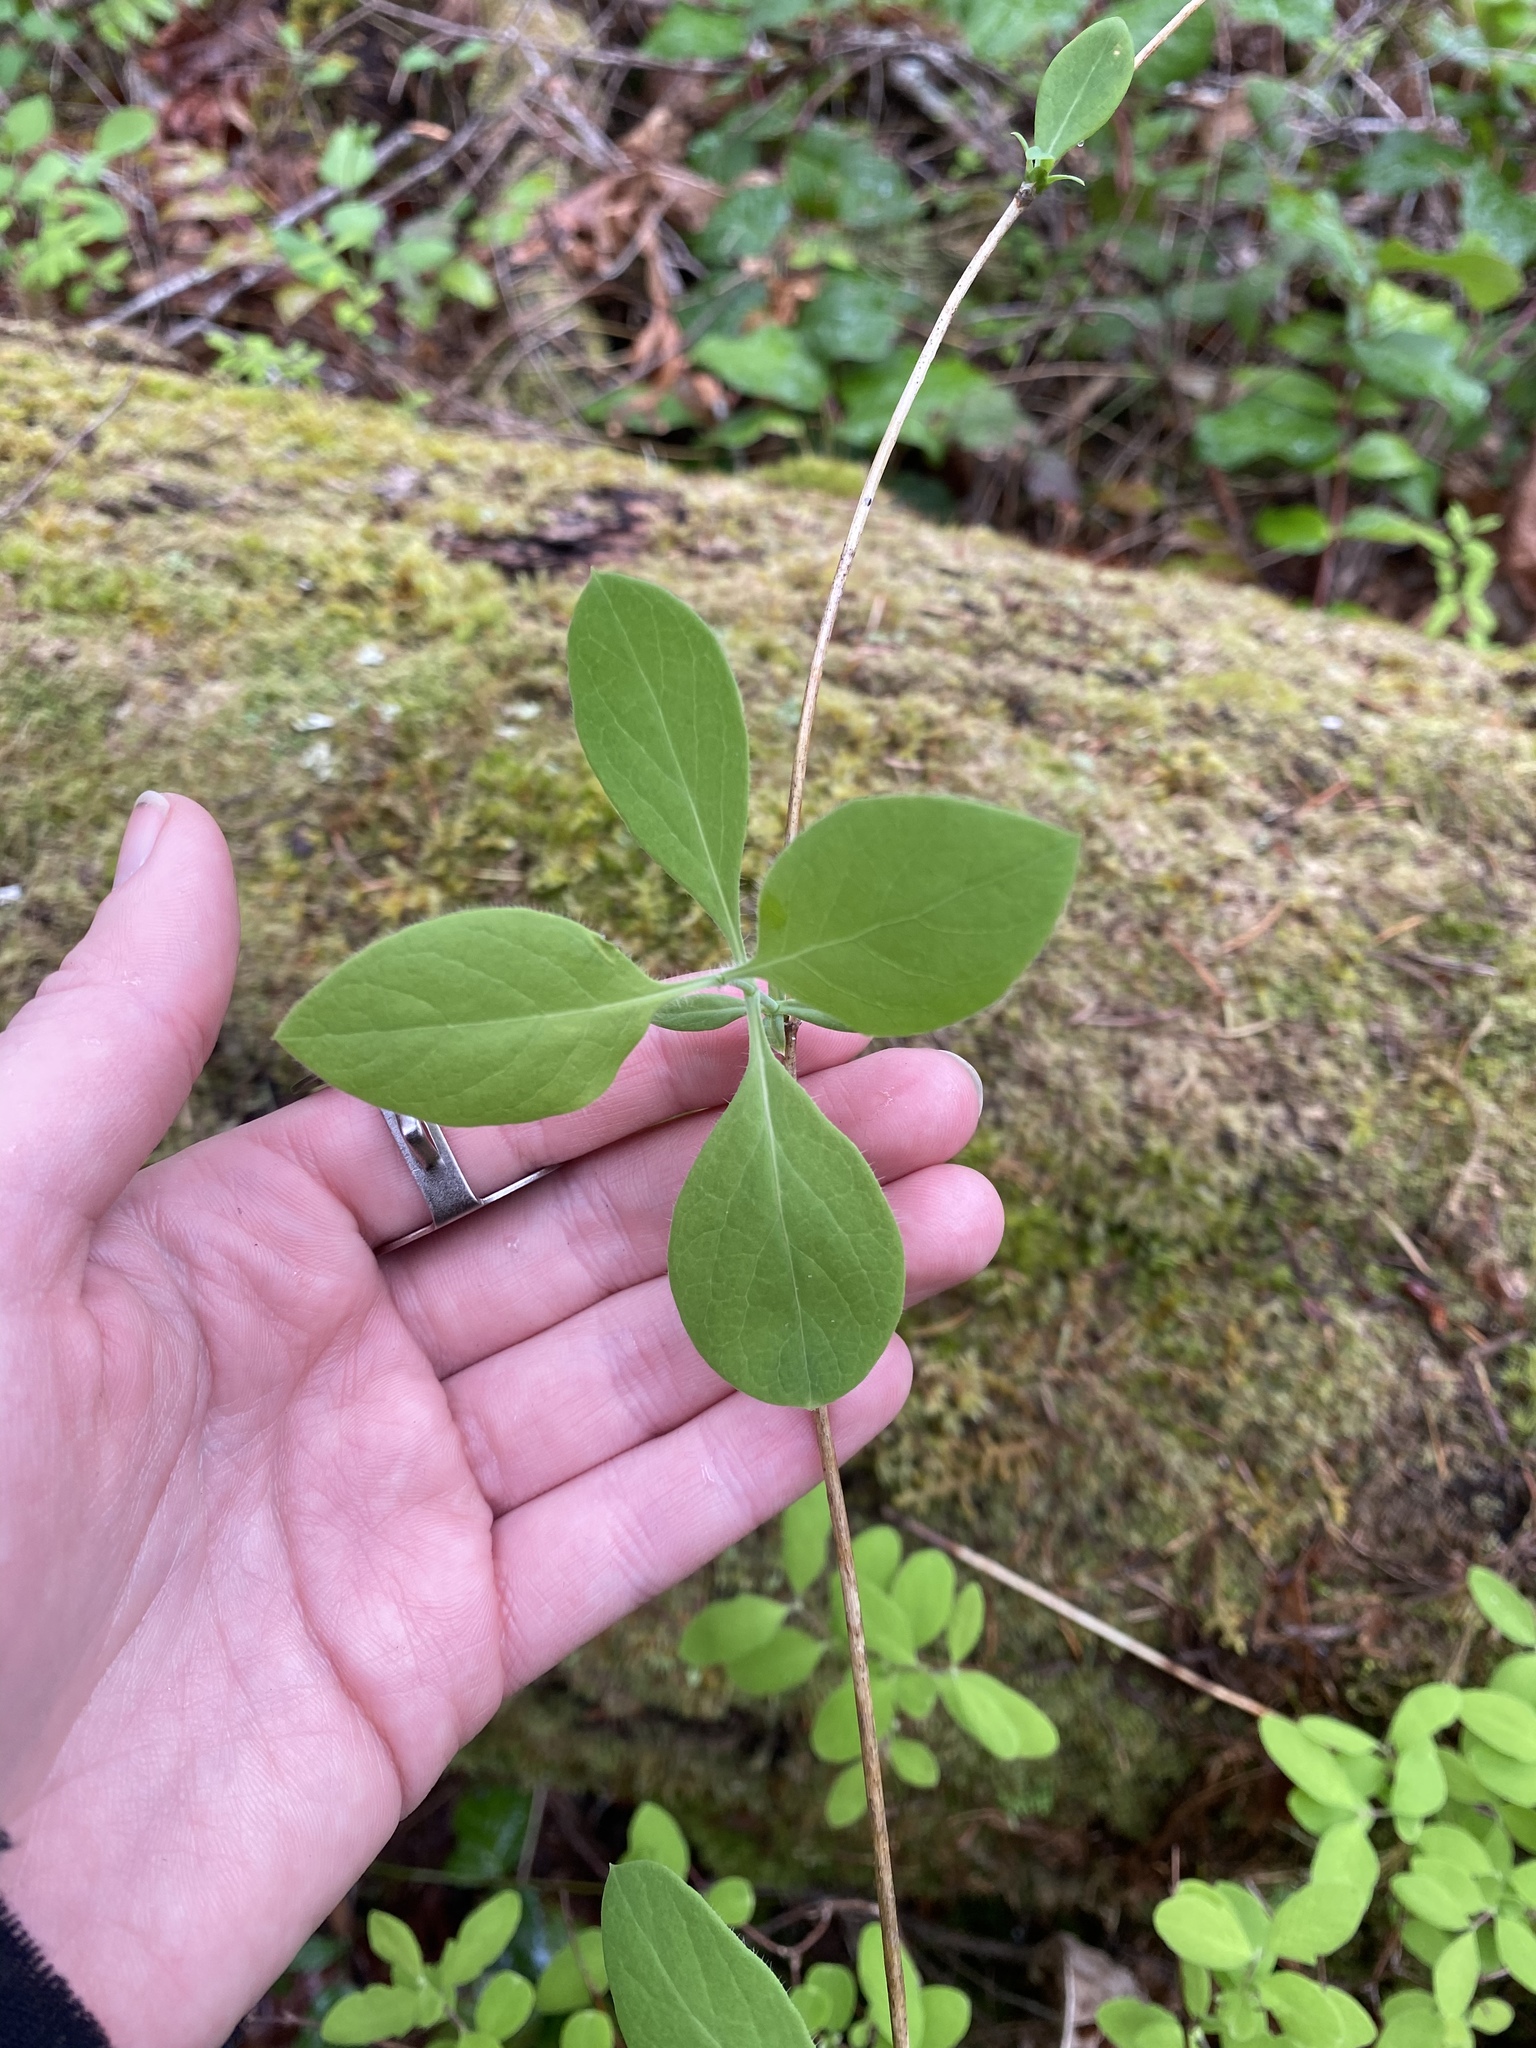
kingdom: Plantae
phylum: Tracheophyta
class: Magnoliopsida
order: Dipsacales
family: Caprifoliaceae
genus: Lonicera
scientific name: Lonicera ciliosa
